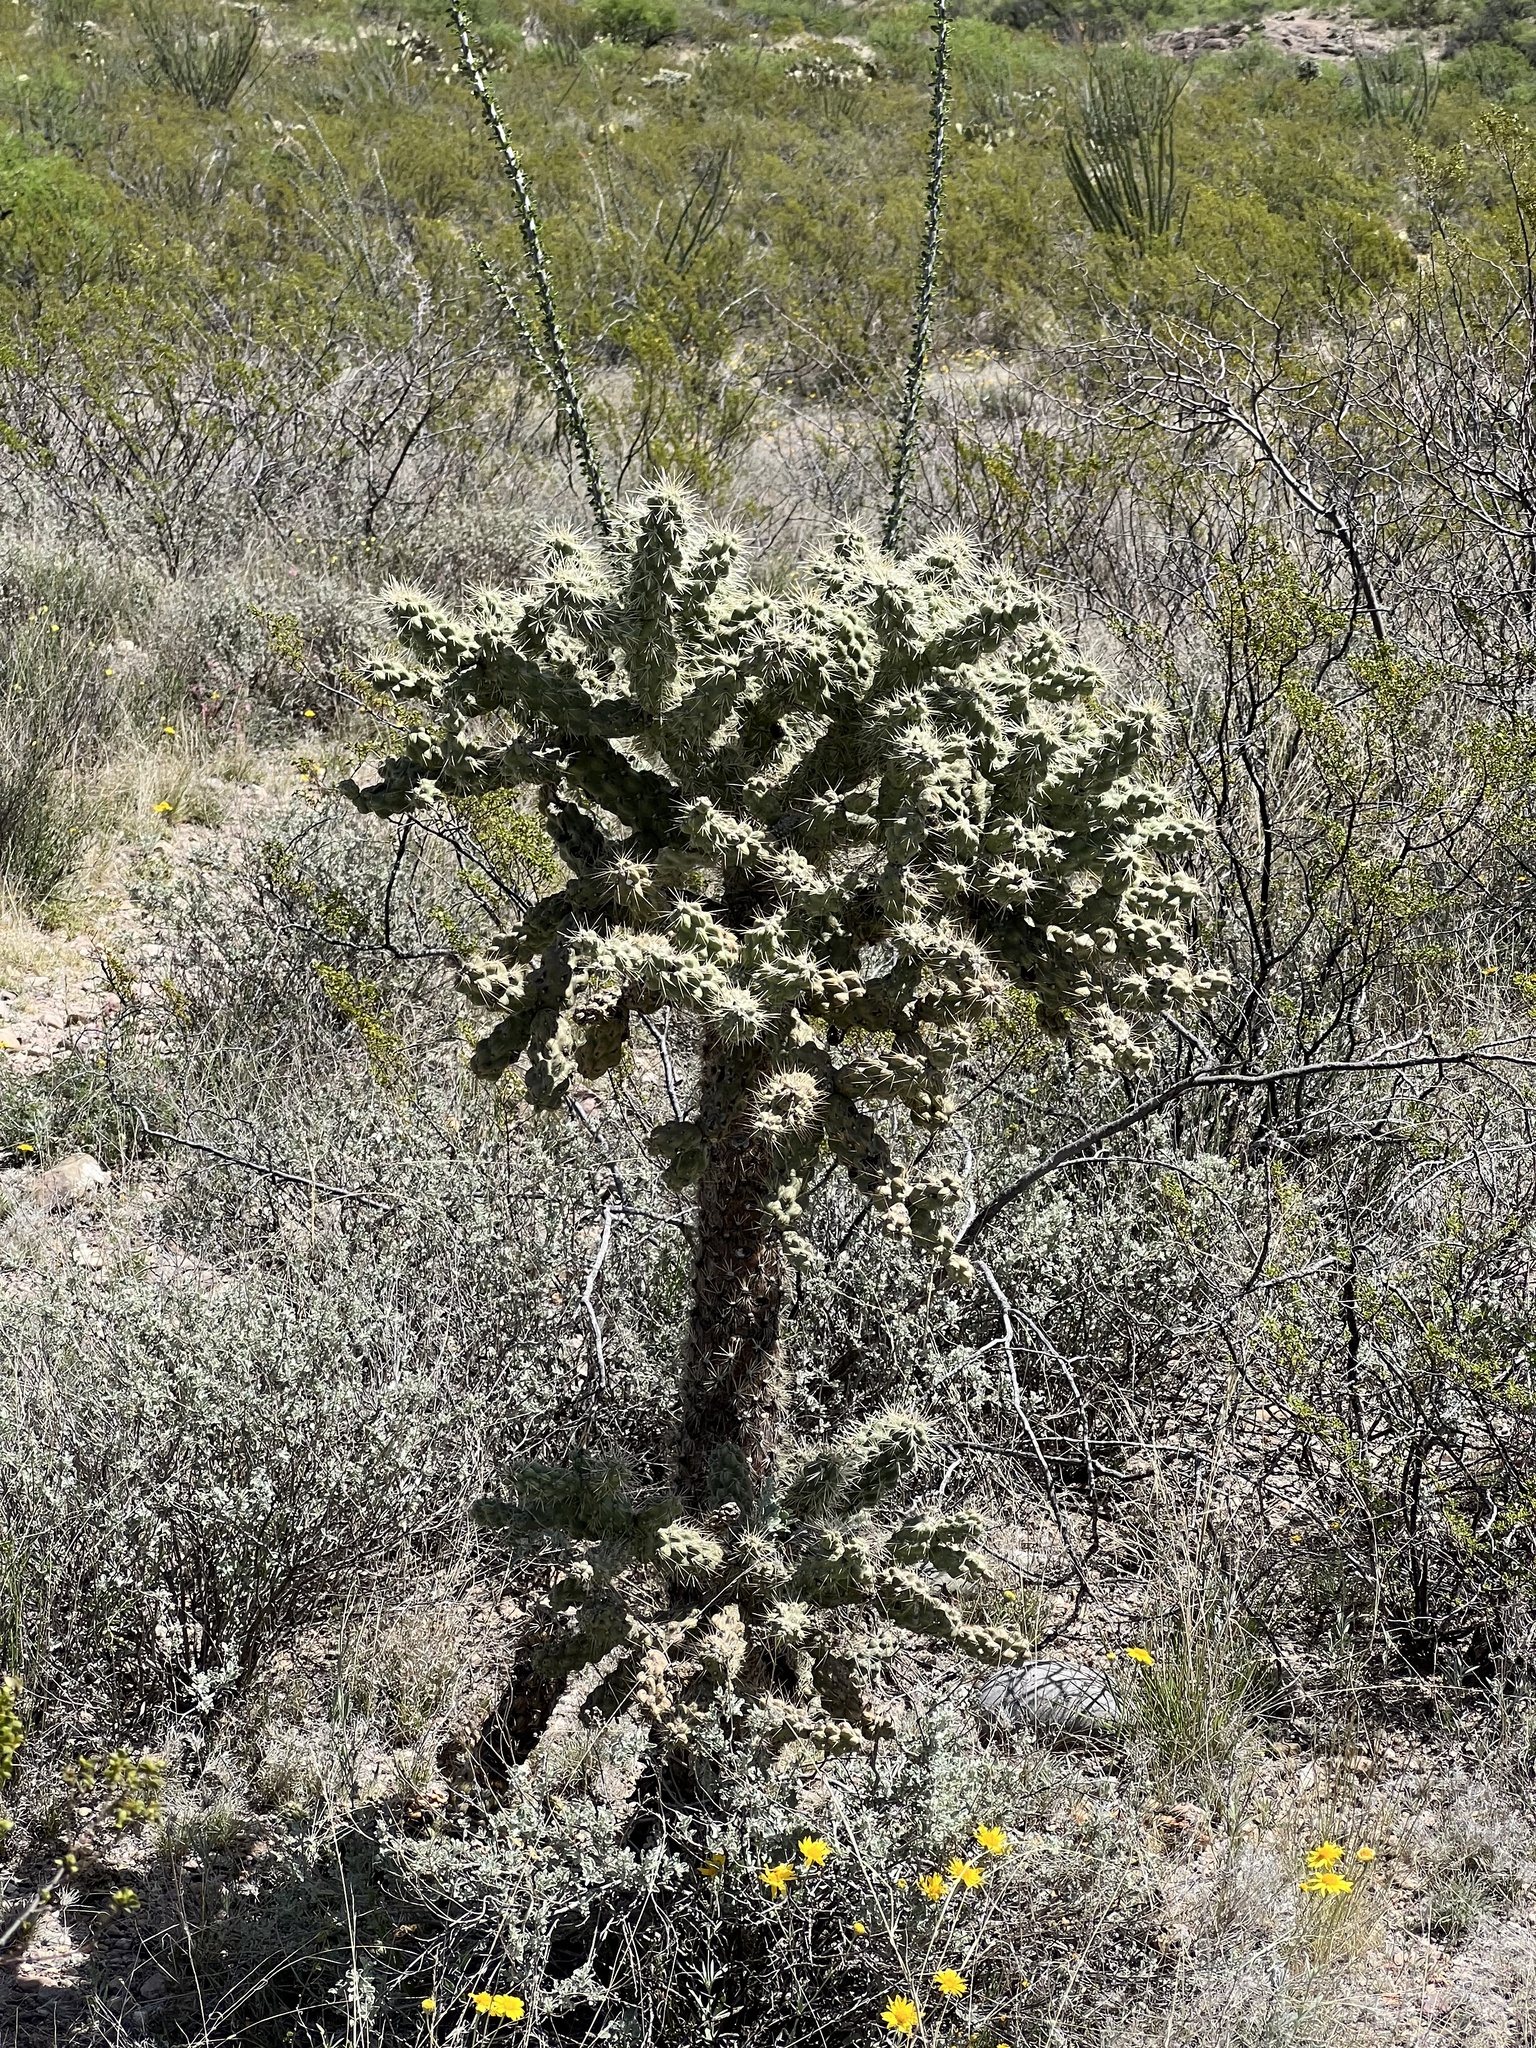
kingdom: Plantae
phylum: Tracheophyta
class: Magnoliopsida
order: Caryophyllales
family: Cactaceae
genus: Cylindropuntia
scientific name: Cylindropuntia fulgida
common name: Jumping cholla
